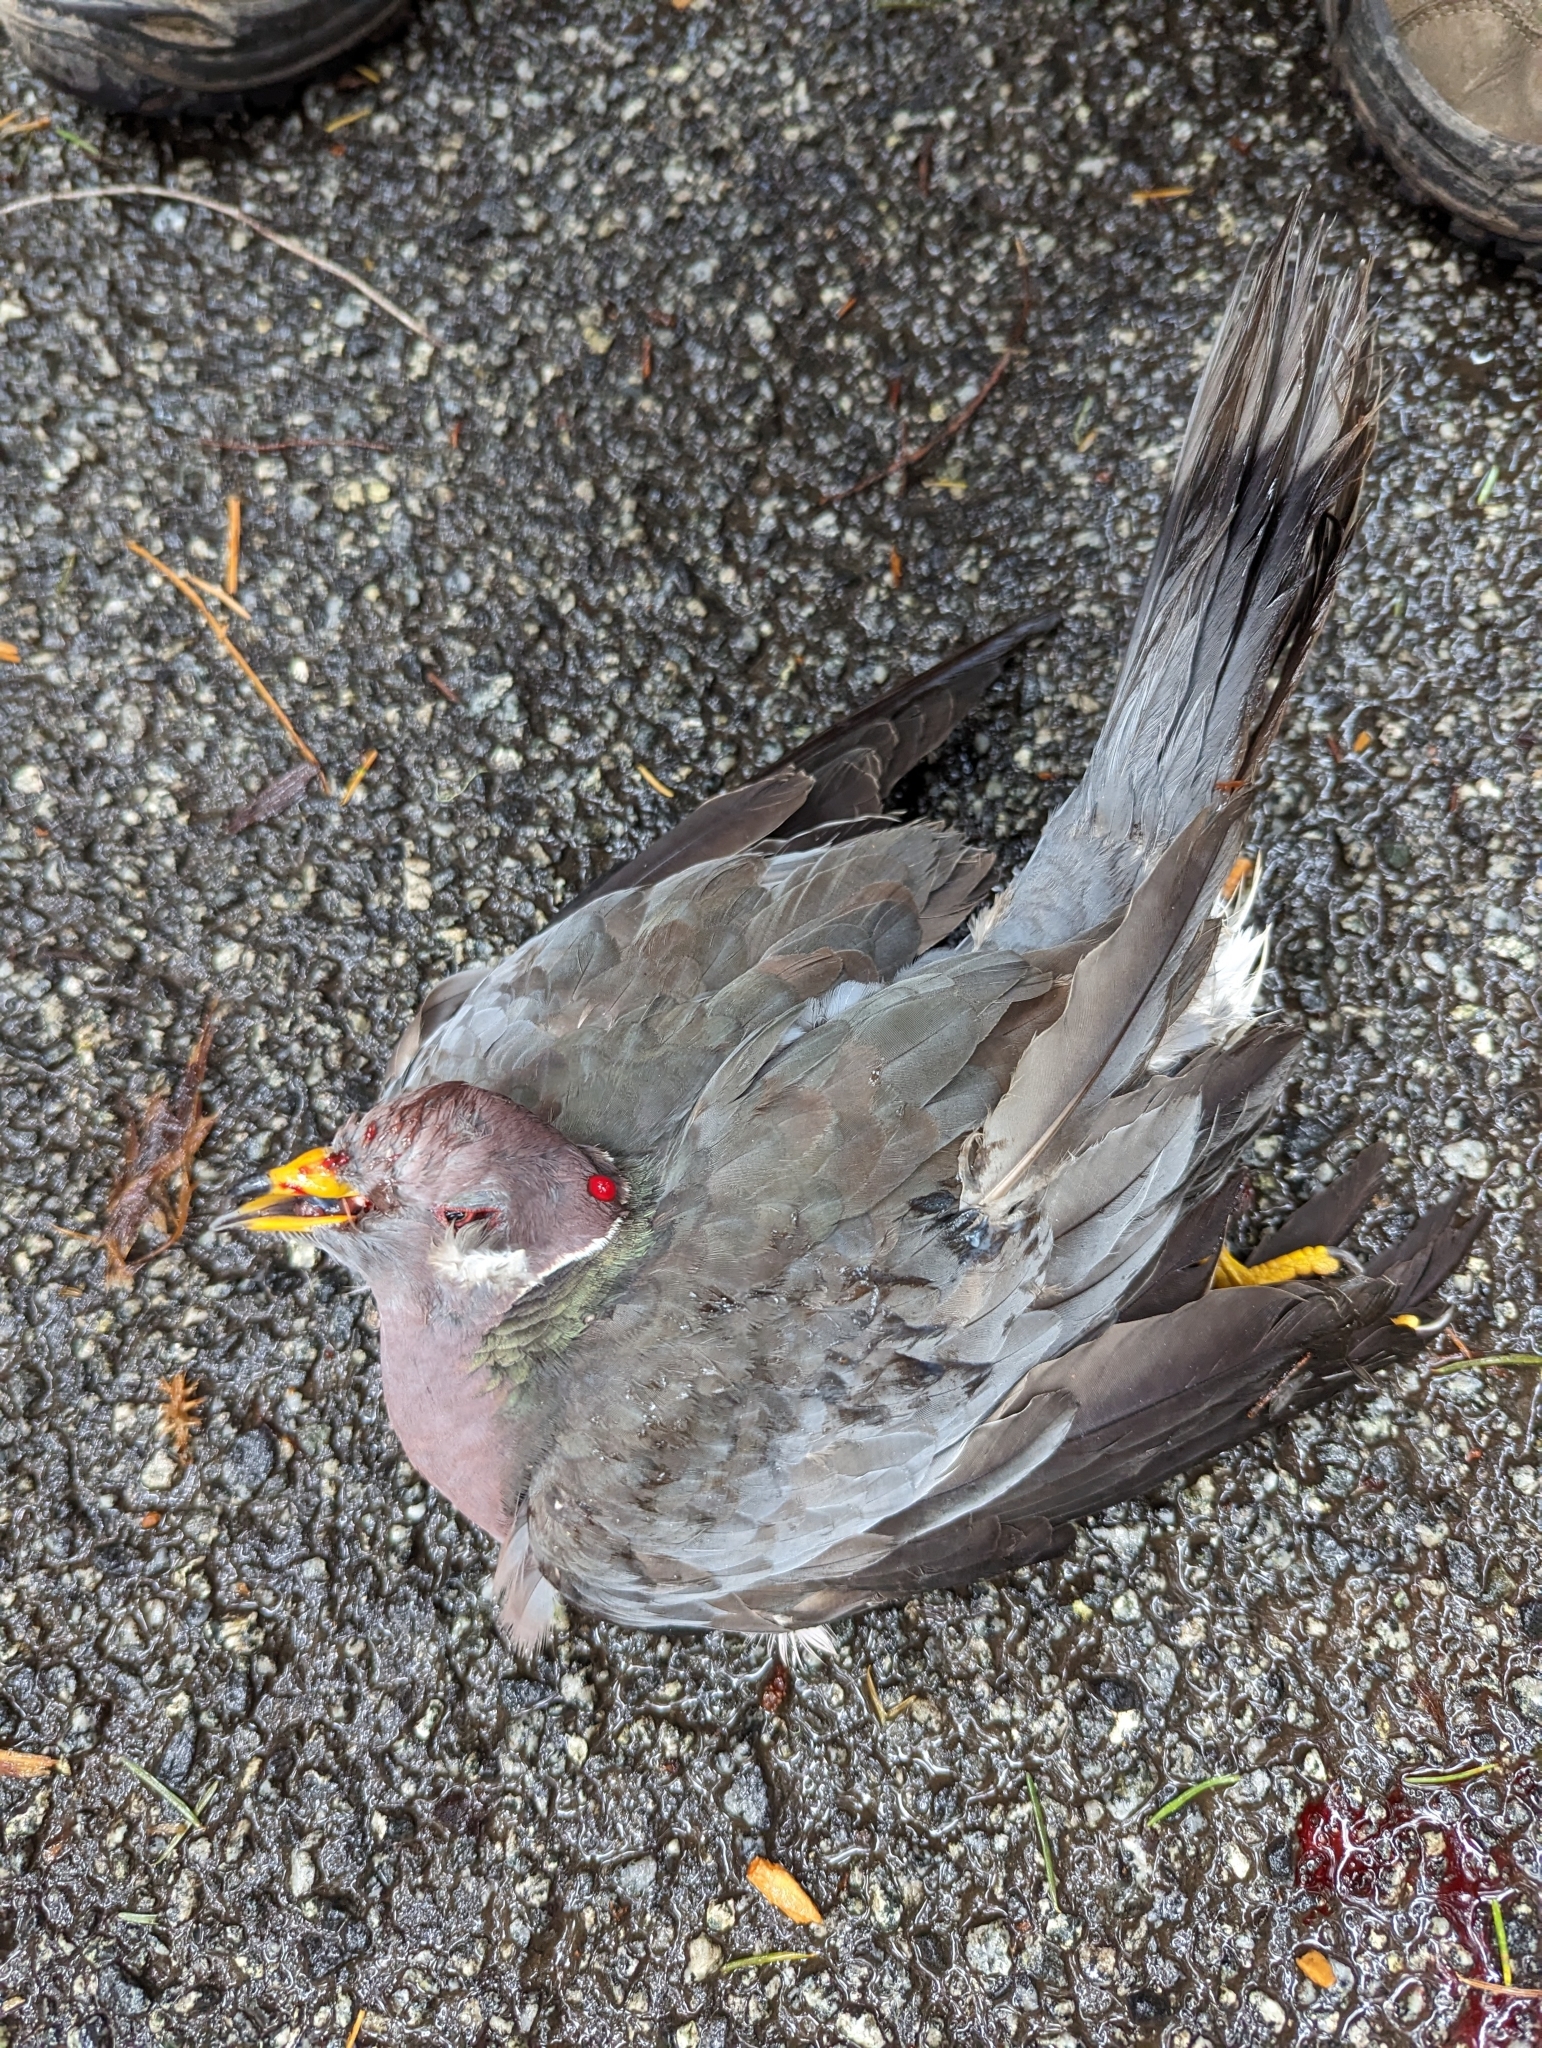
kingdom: Animalia
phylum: Chordata
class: Aves
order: Columbiformes
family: Columbidae
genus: Patagioenas
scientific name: Patagioenas fasciata
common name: Band-tailed pigeon
